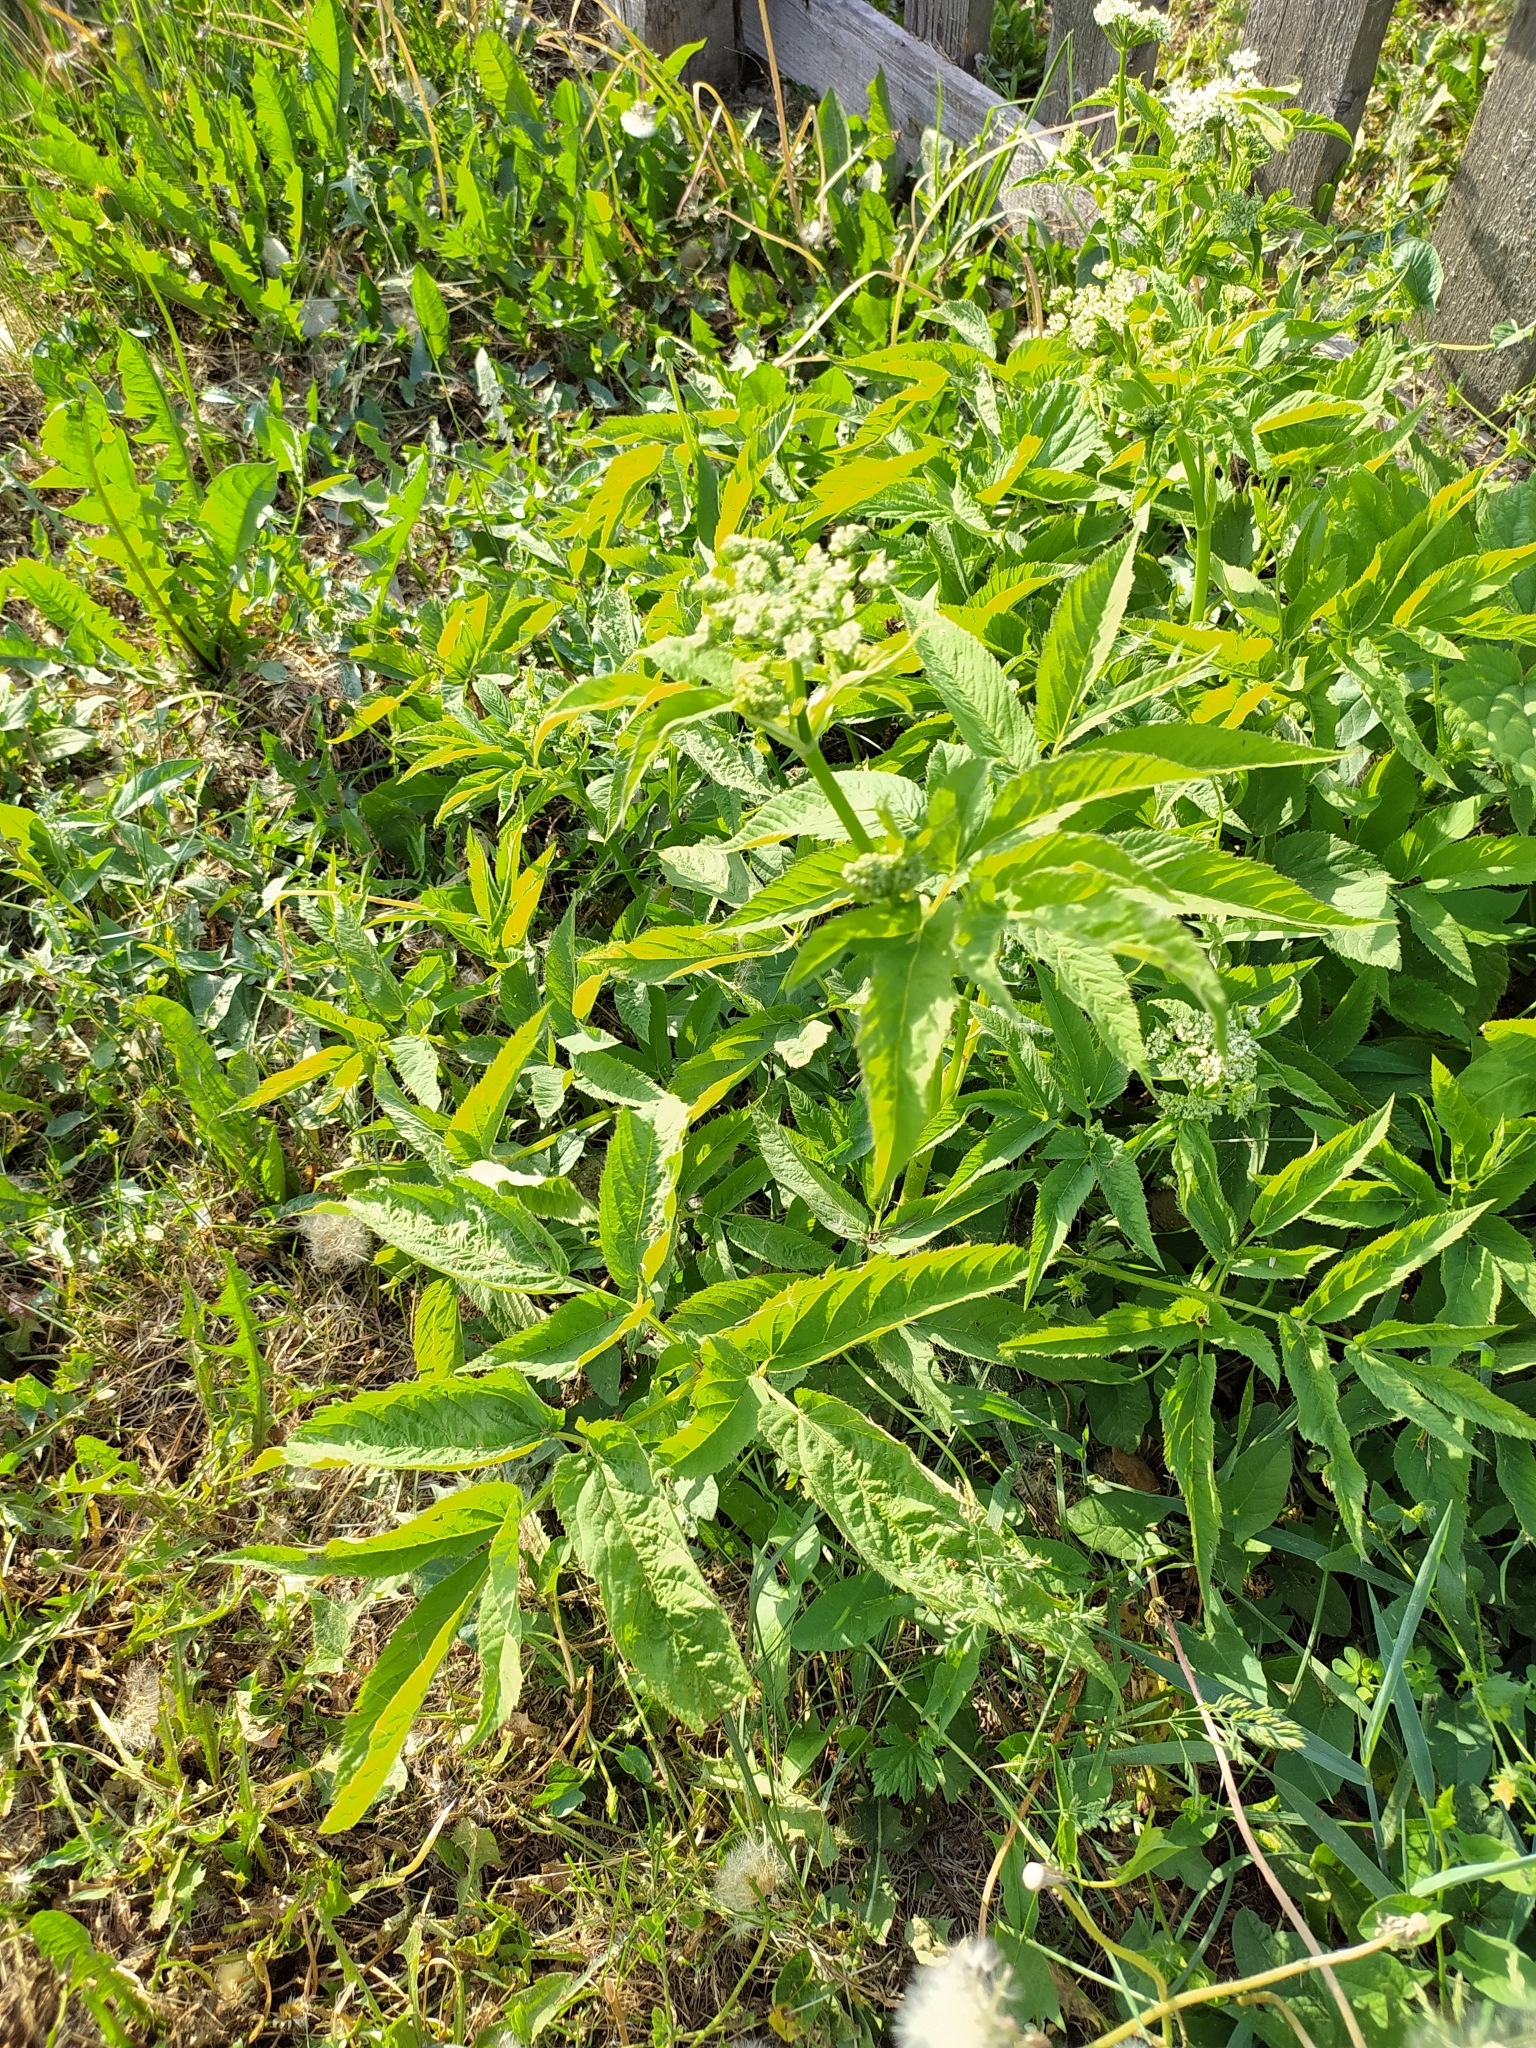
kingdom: Plantae
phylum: Tracheophyta
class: Magnoliopsida
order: Apiales
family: Apiaceae
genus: Aegopodium
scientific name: Aegopodium podagraria
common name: Ground-elder
